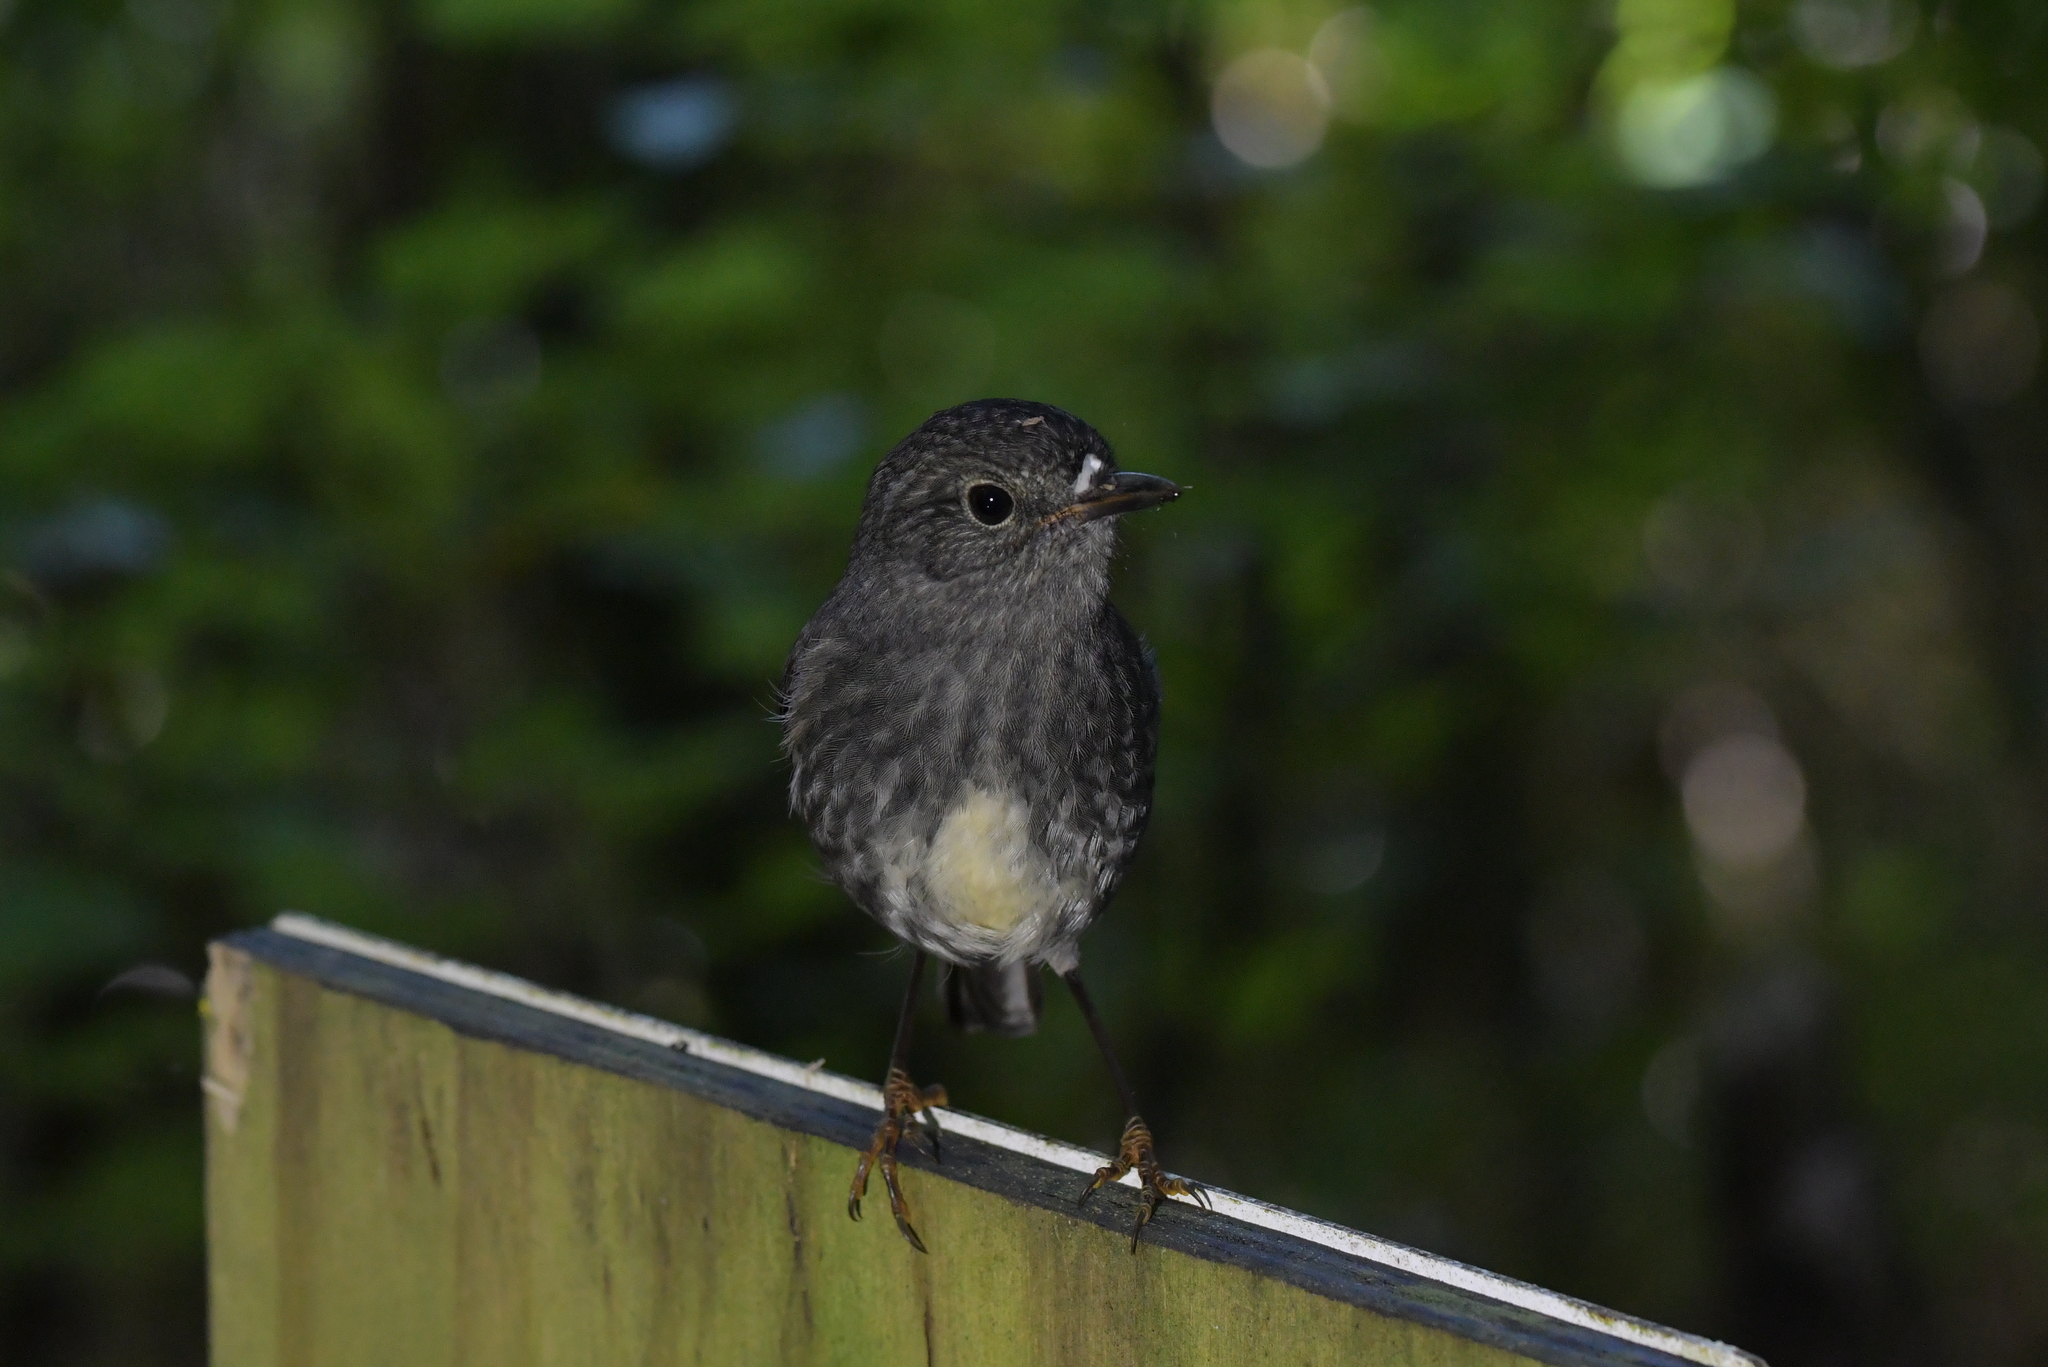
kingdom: Animalia
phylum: Chordata
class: Aves
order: Passeriformes
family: Petroicidae
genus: Petroica
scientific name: Petroica australis
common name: New zealand robin
